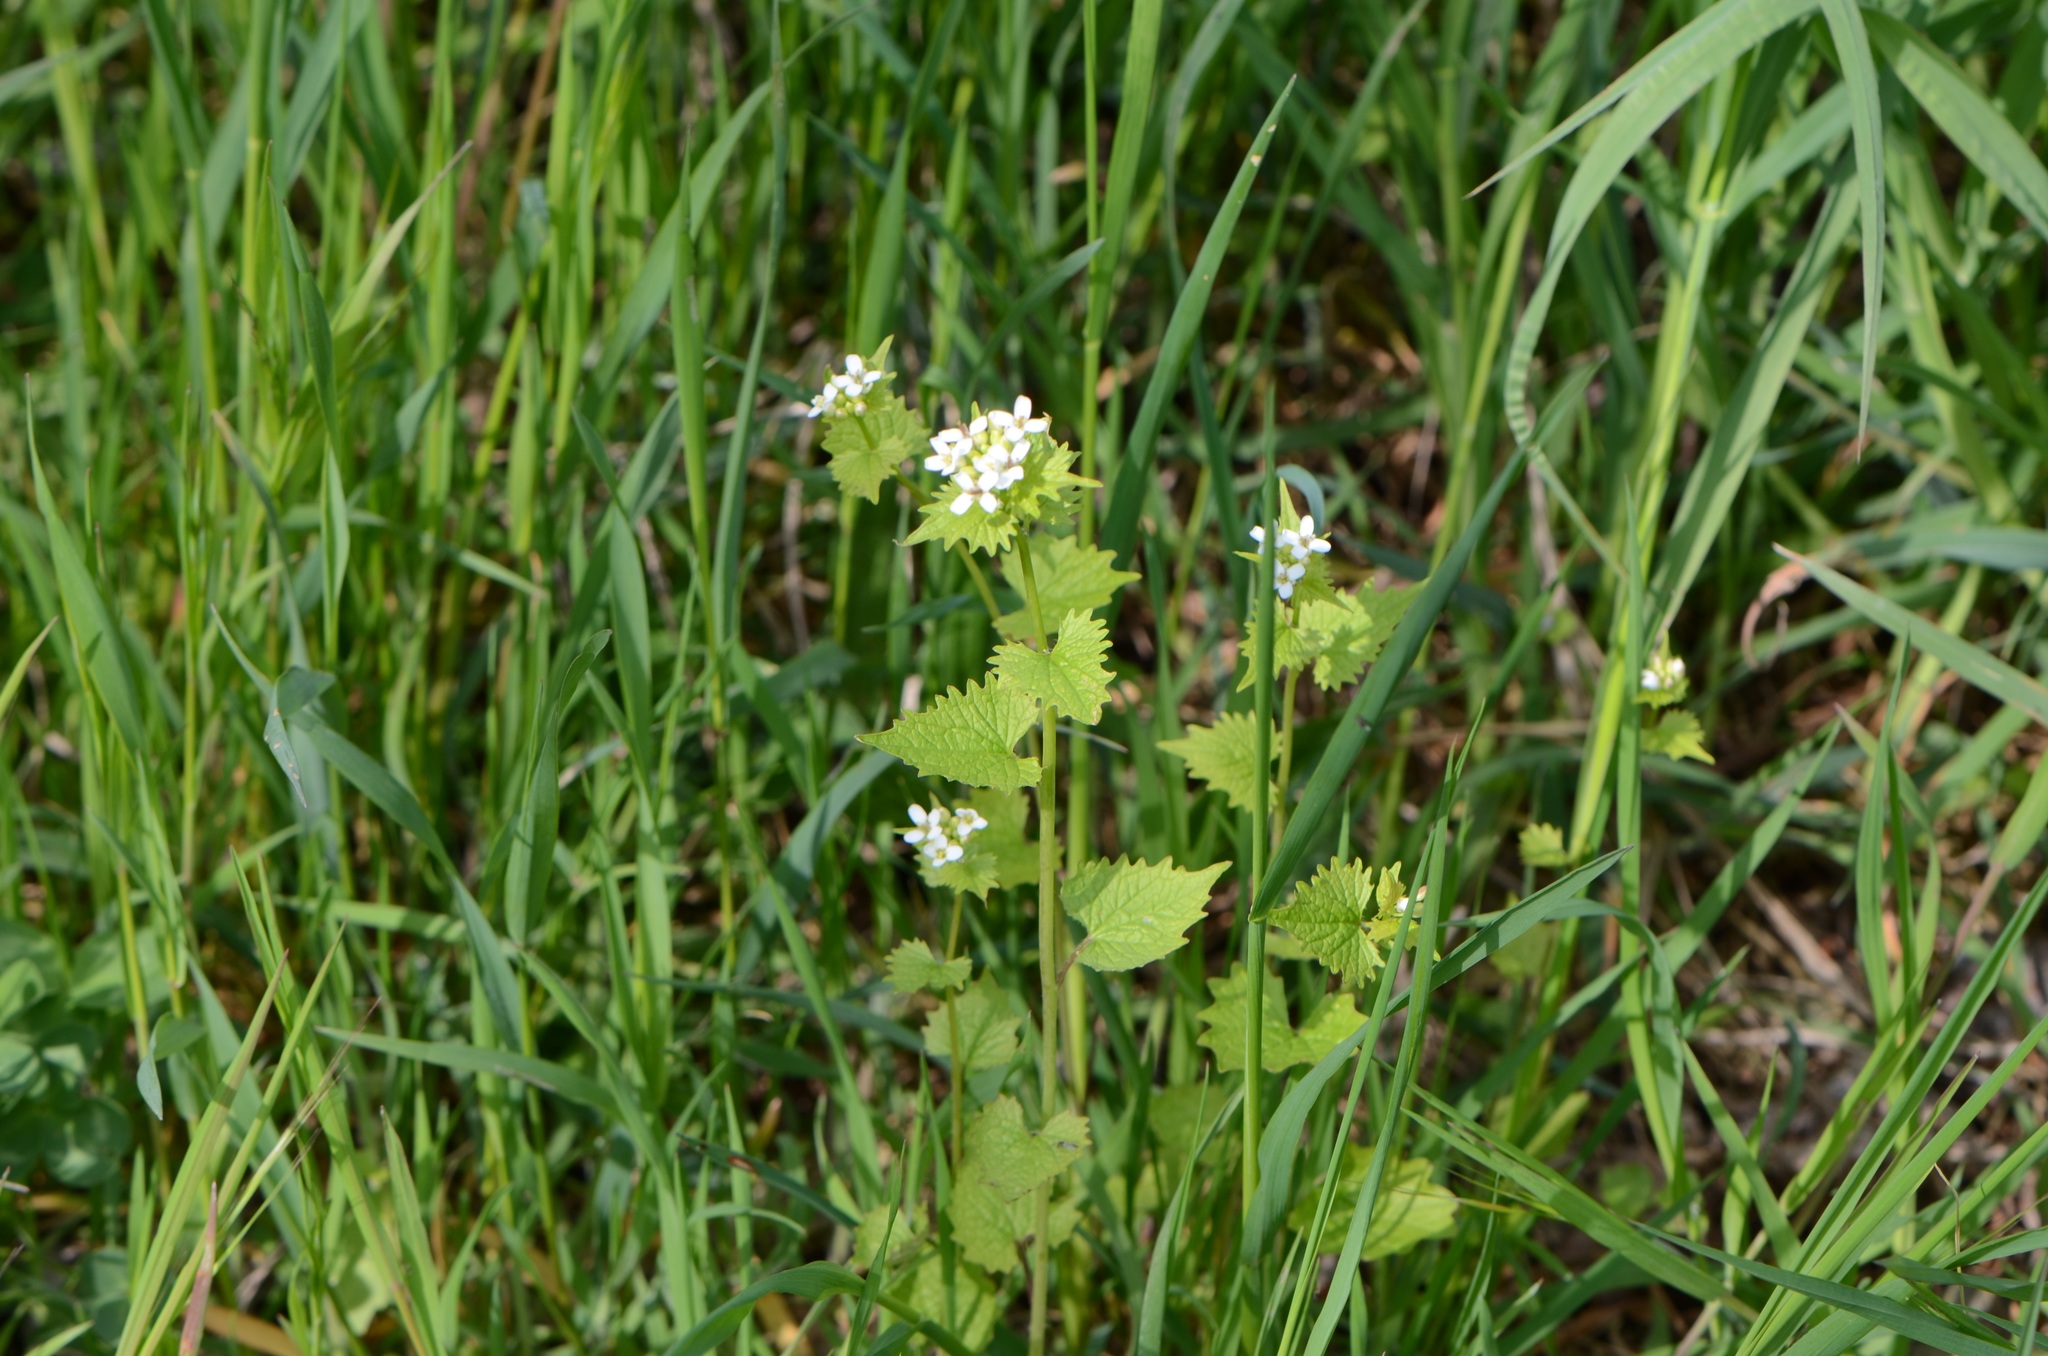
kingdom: Plantae
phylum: Tracheophyta
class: Magnoliopsida
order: Brassicales
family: Brassicaceae
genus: Alliaria
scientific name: Alliaria petiolata
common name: Garlic mustard
